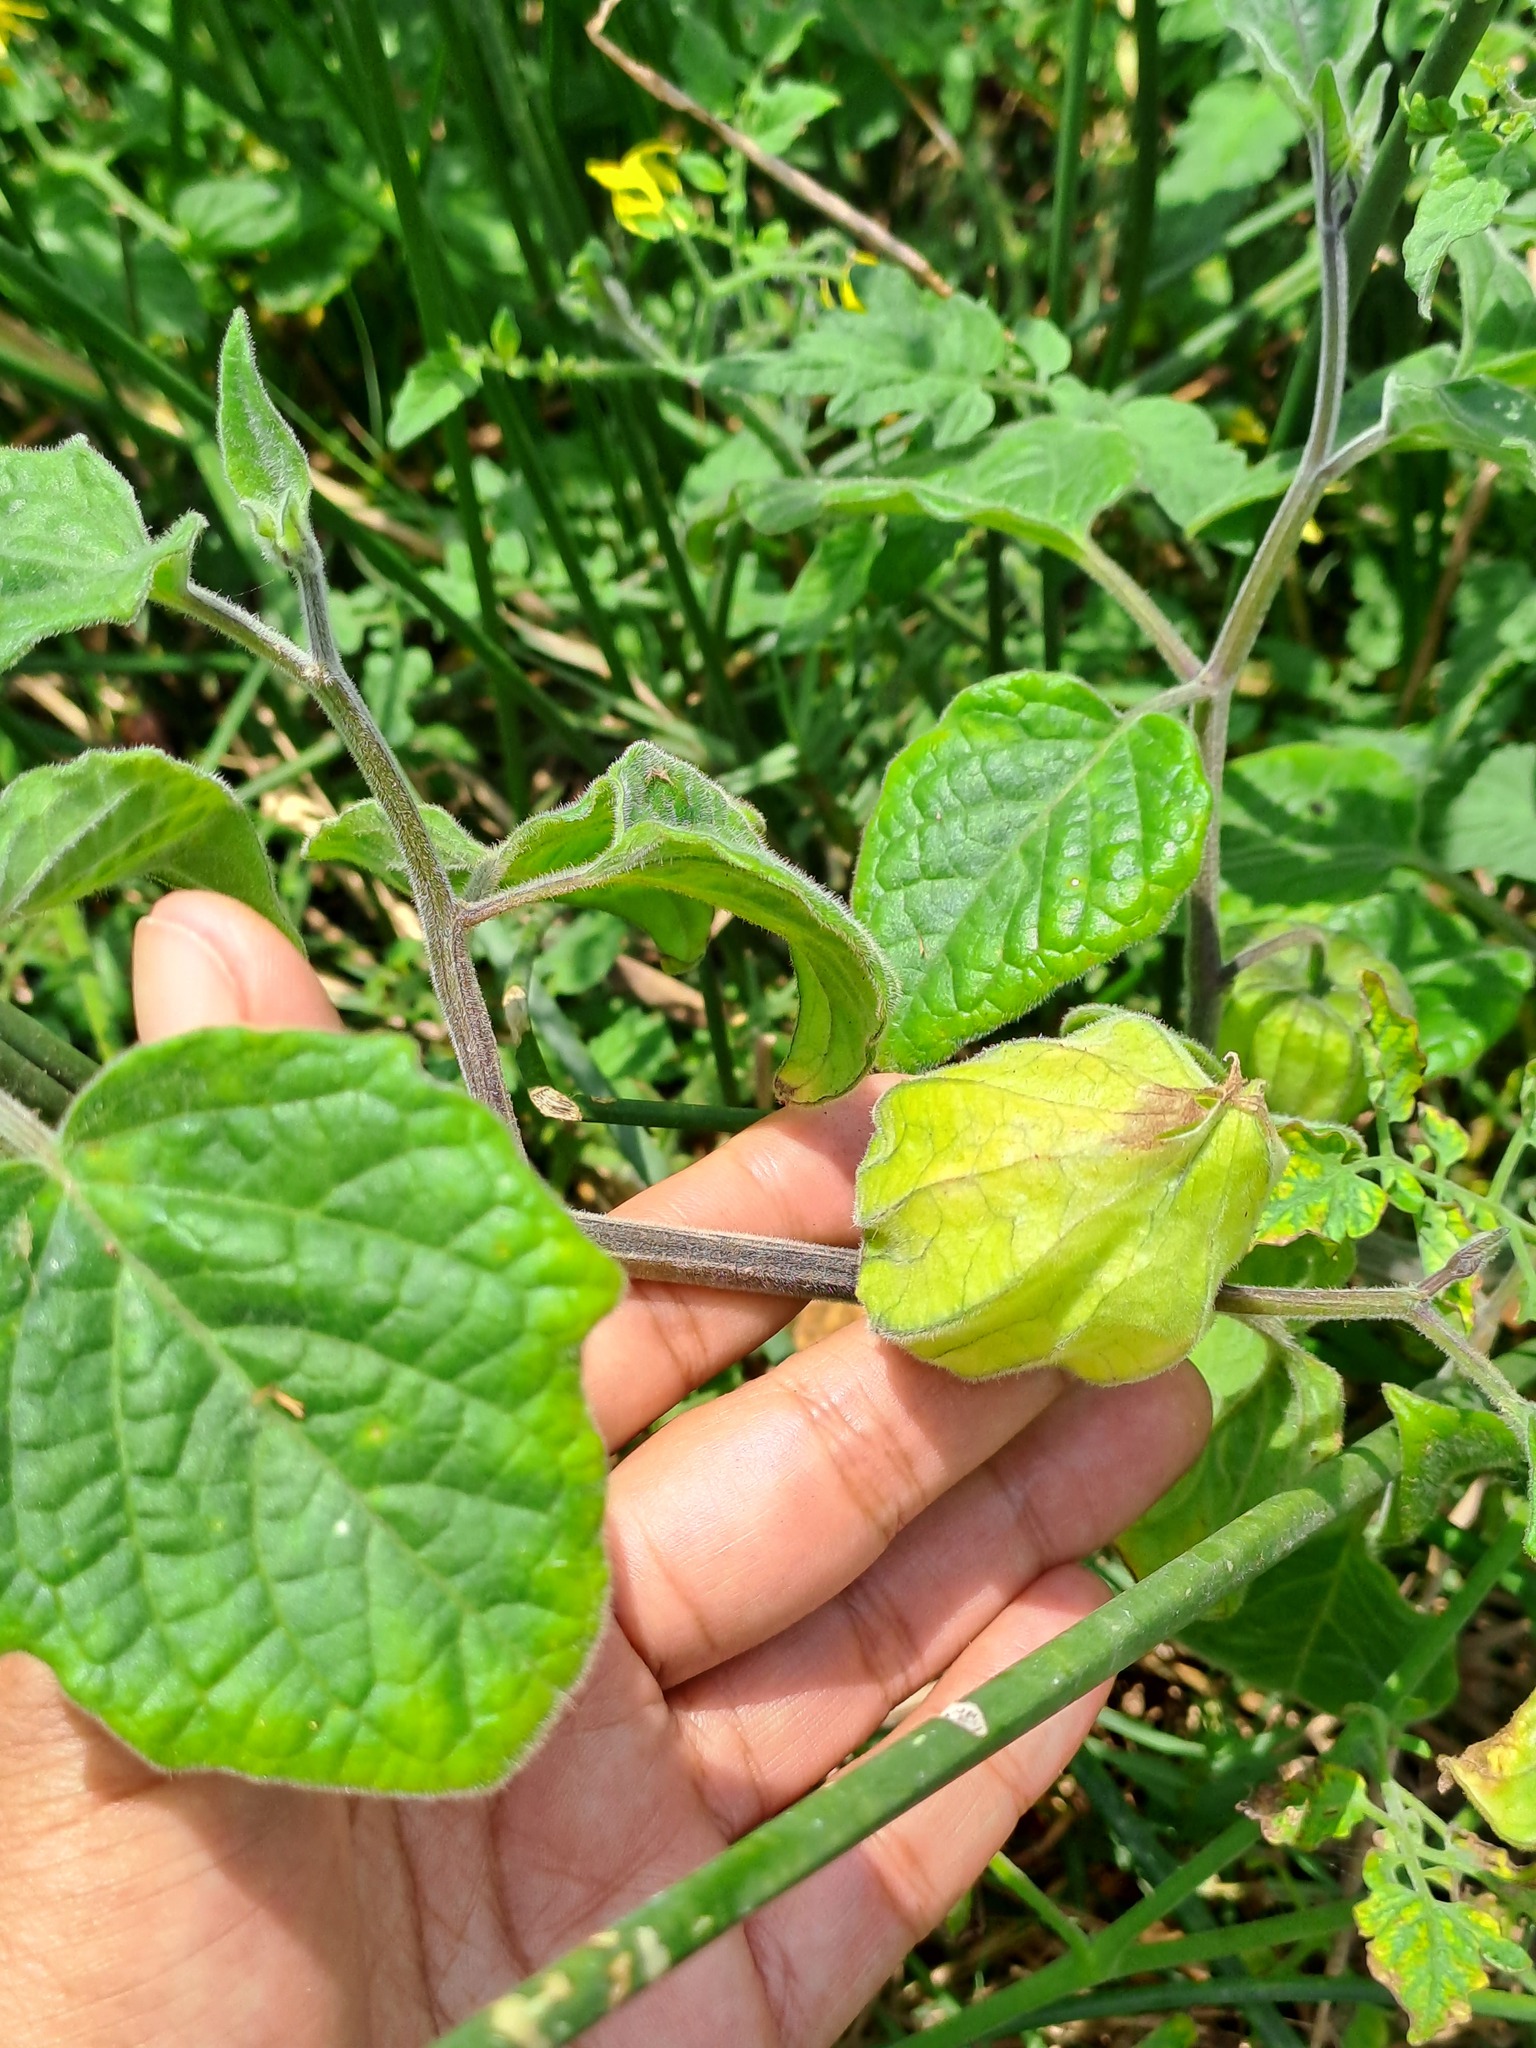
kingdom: Plantae
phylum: Tracheophyta
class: Magnoliopsida
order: Solanales
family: Solanaceae
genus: Physalis
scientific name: Physalis peruviana
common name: Cape-gooseberry
